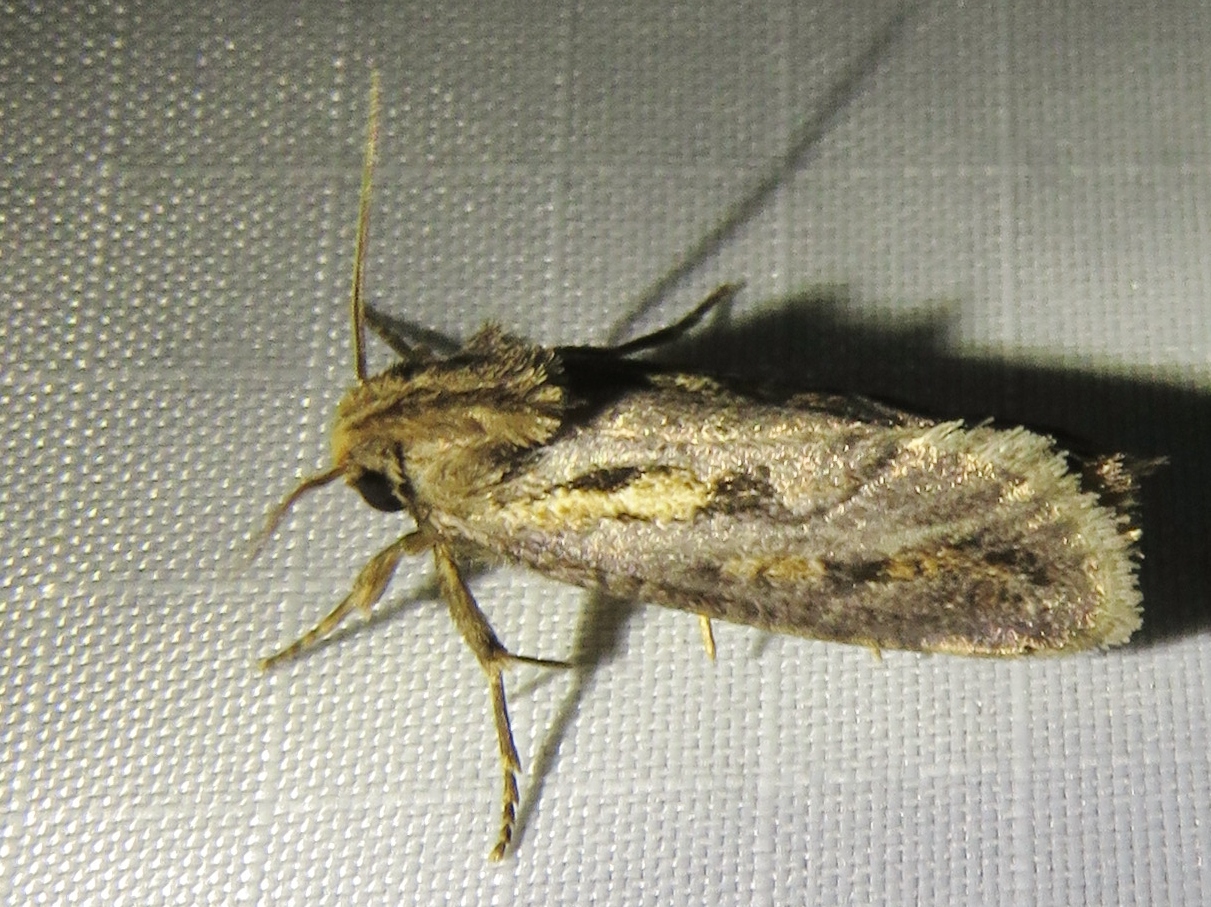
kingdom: Animalia
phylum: Arthropoda
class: Insecta
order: Lepidoptera
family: Tineidae
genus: Acrolophus
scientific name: Acrolophus popeanella
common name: Clemens' grass tubeworm moth
